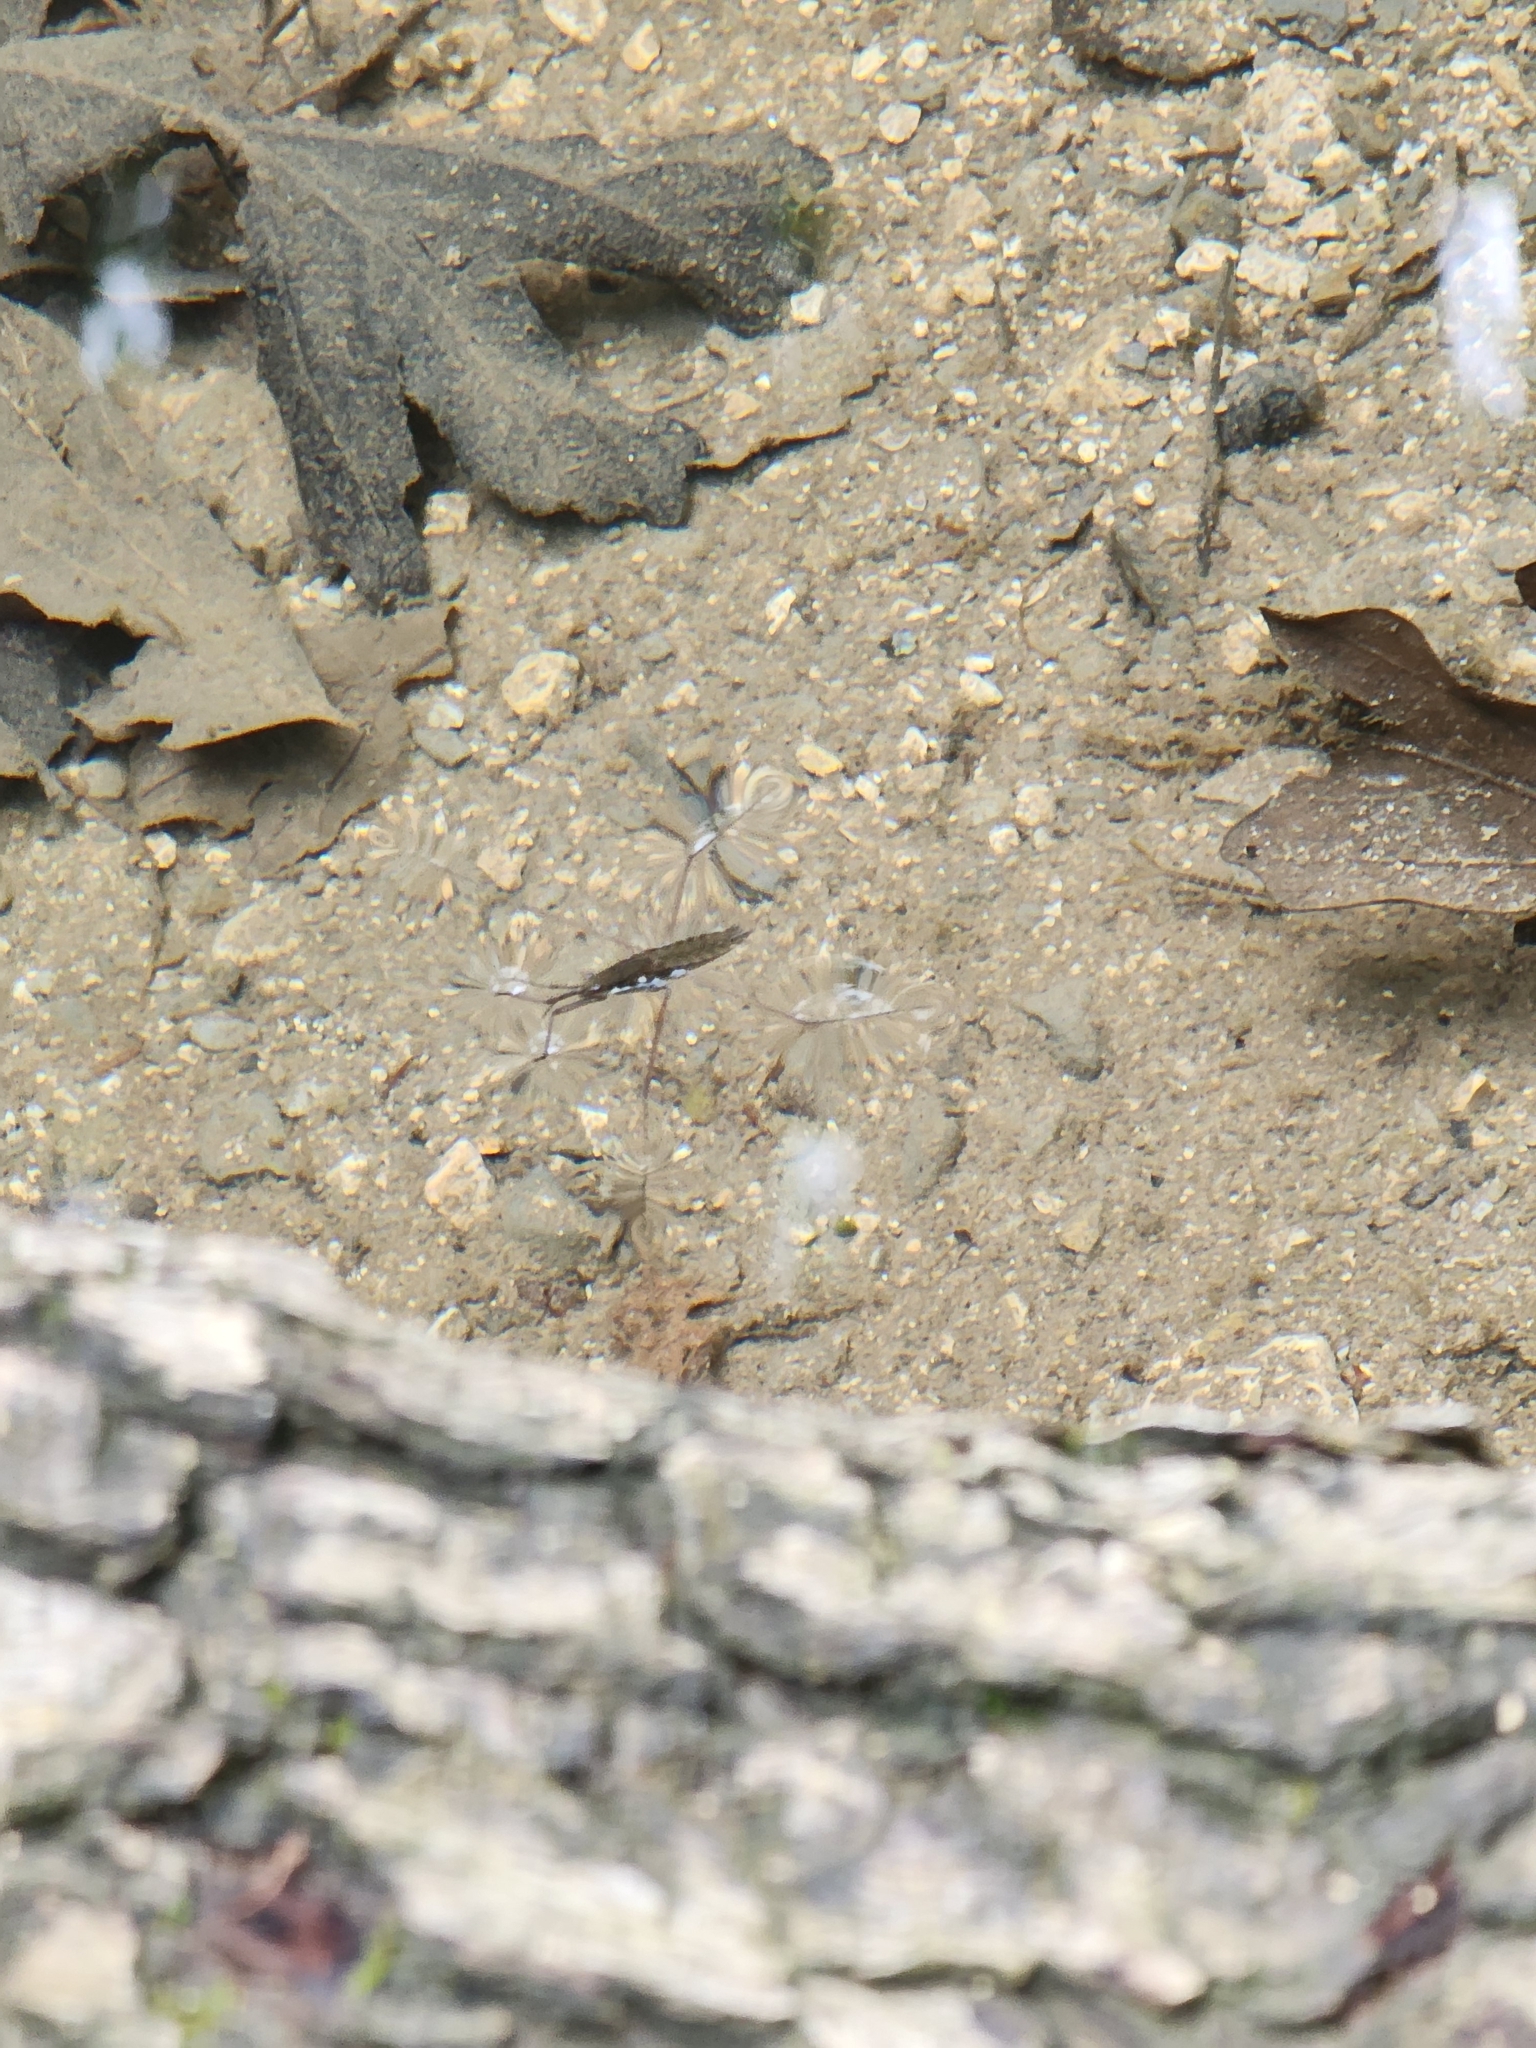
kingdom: Animalia
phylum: Arthropoda
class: Insecta
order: Hemiptera
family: Gerridae
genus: Aquarius
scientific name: Aquarius remigis
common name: Common water strider
